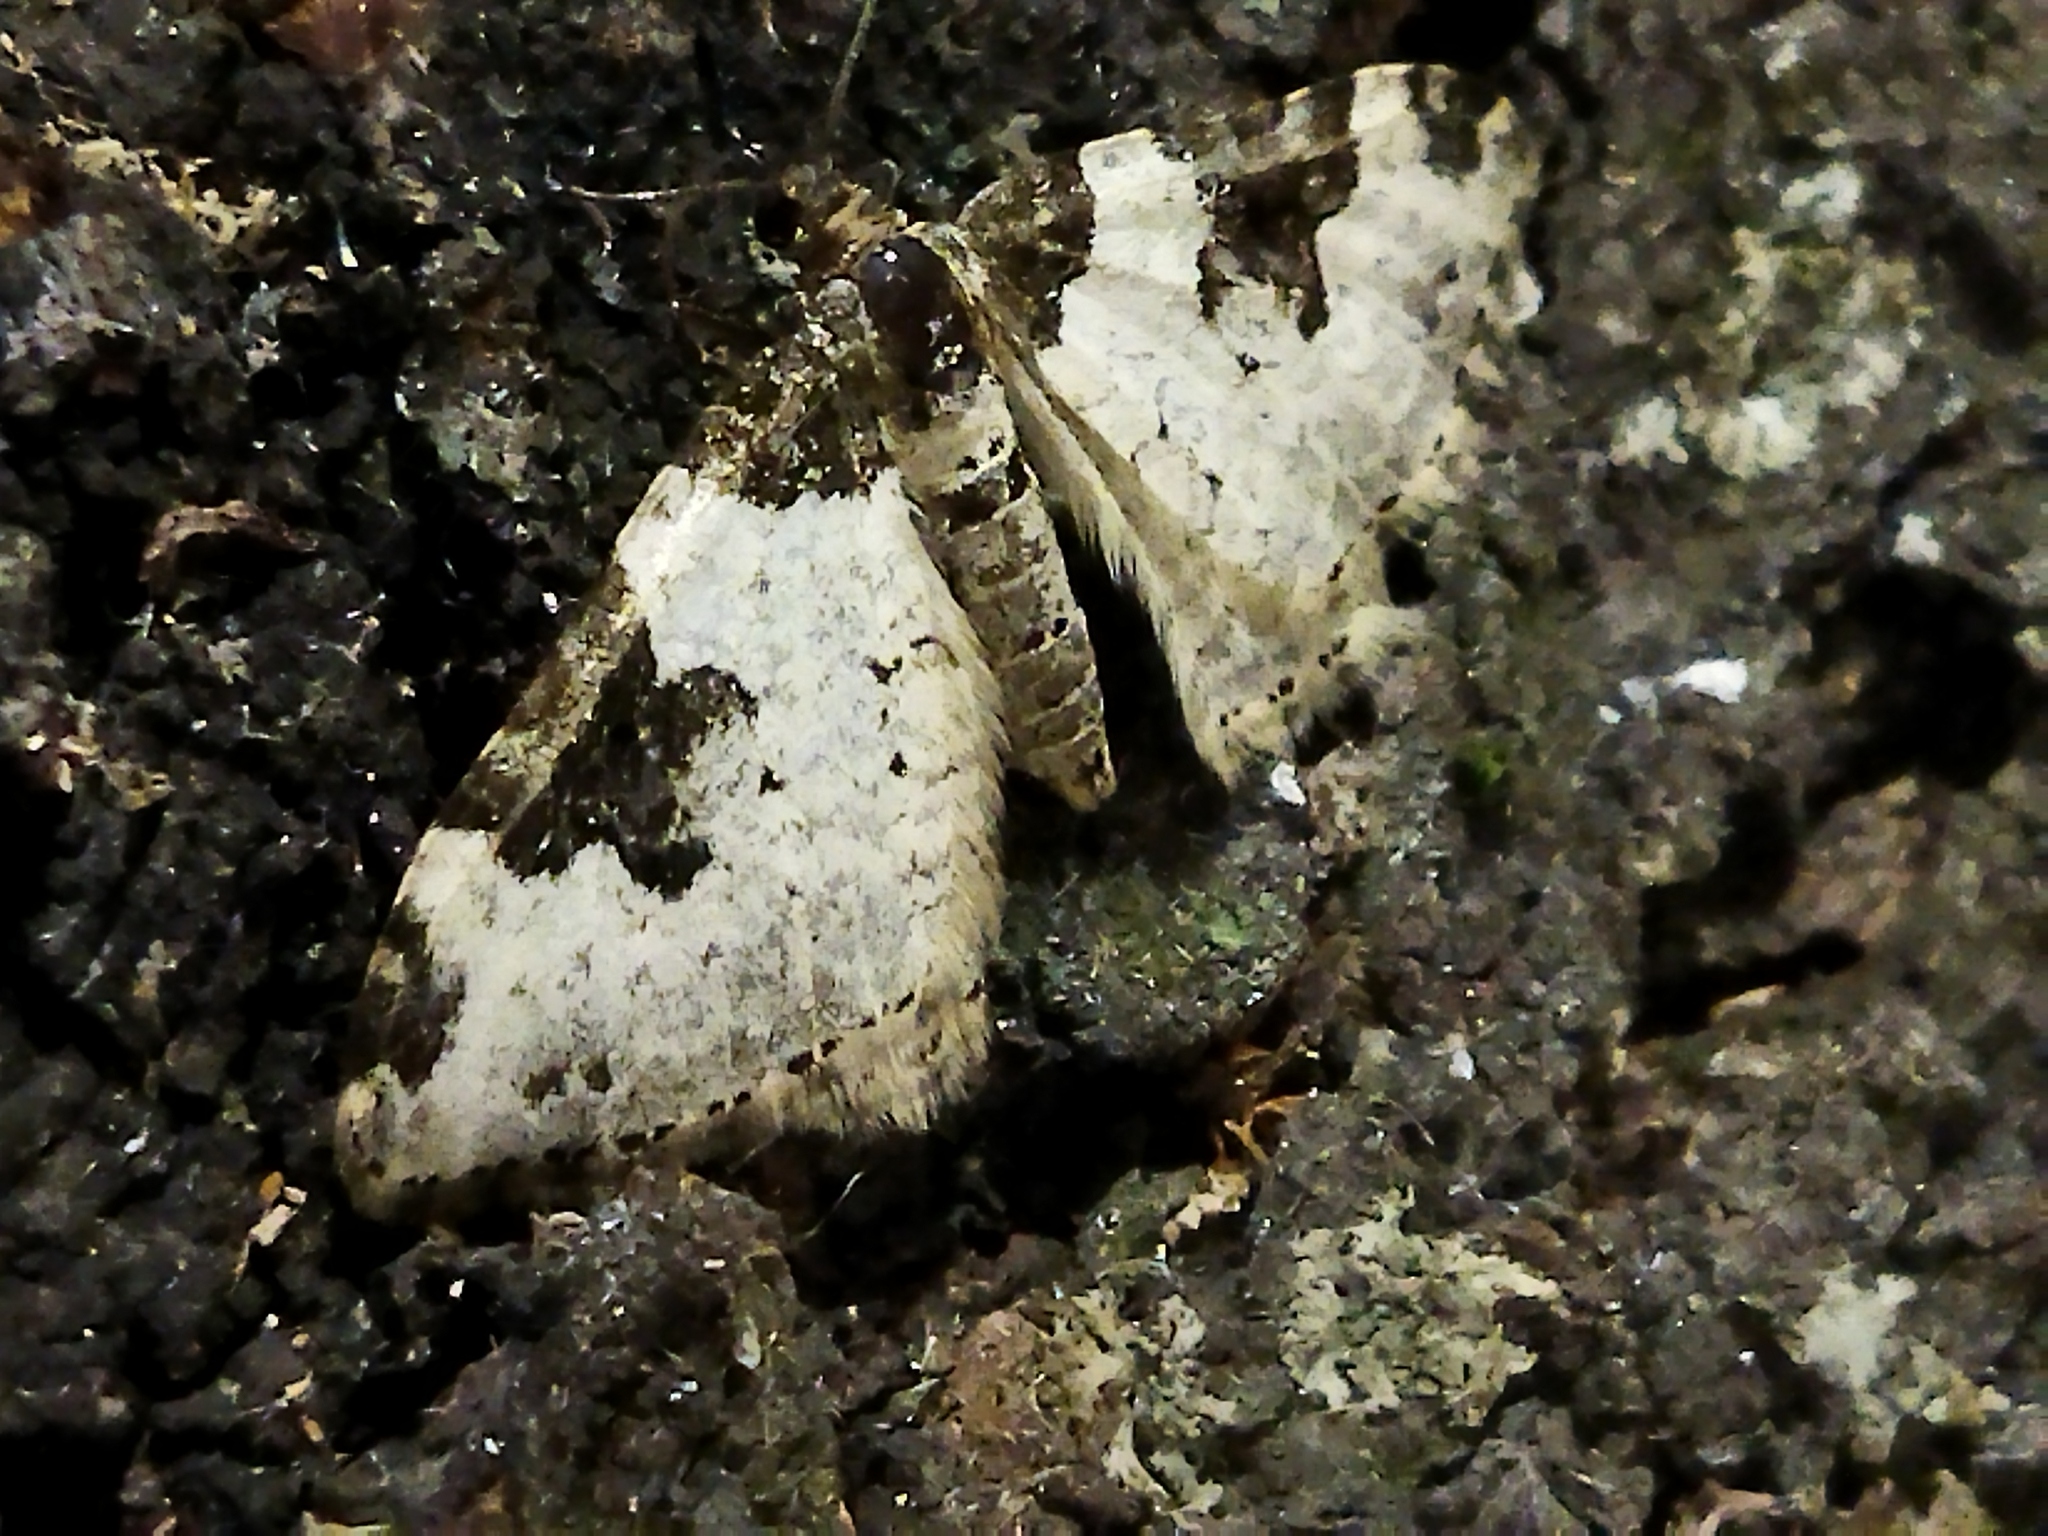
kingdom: Animalia
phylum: Arthropoda
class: Insecta
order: Lepidoptera
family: Geometridae
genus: Xanthorhoe
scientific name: Xanthorhoe fluctuata
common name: Garden carpet
